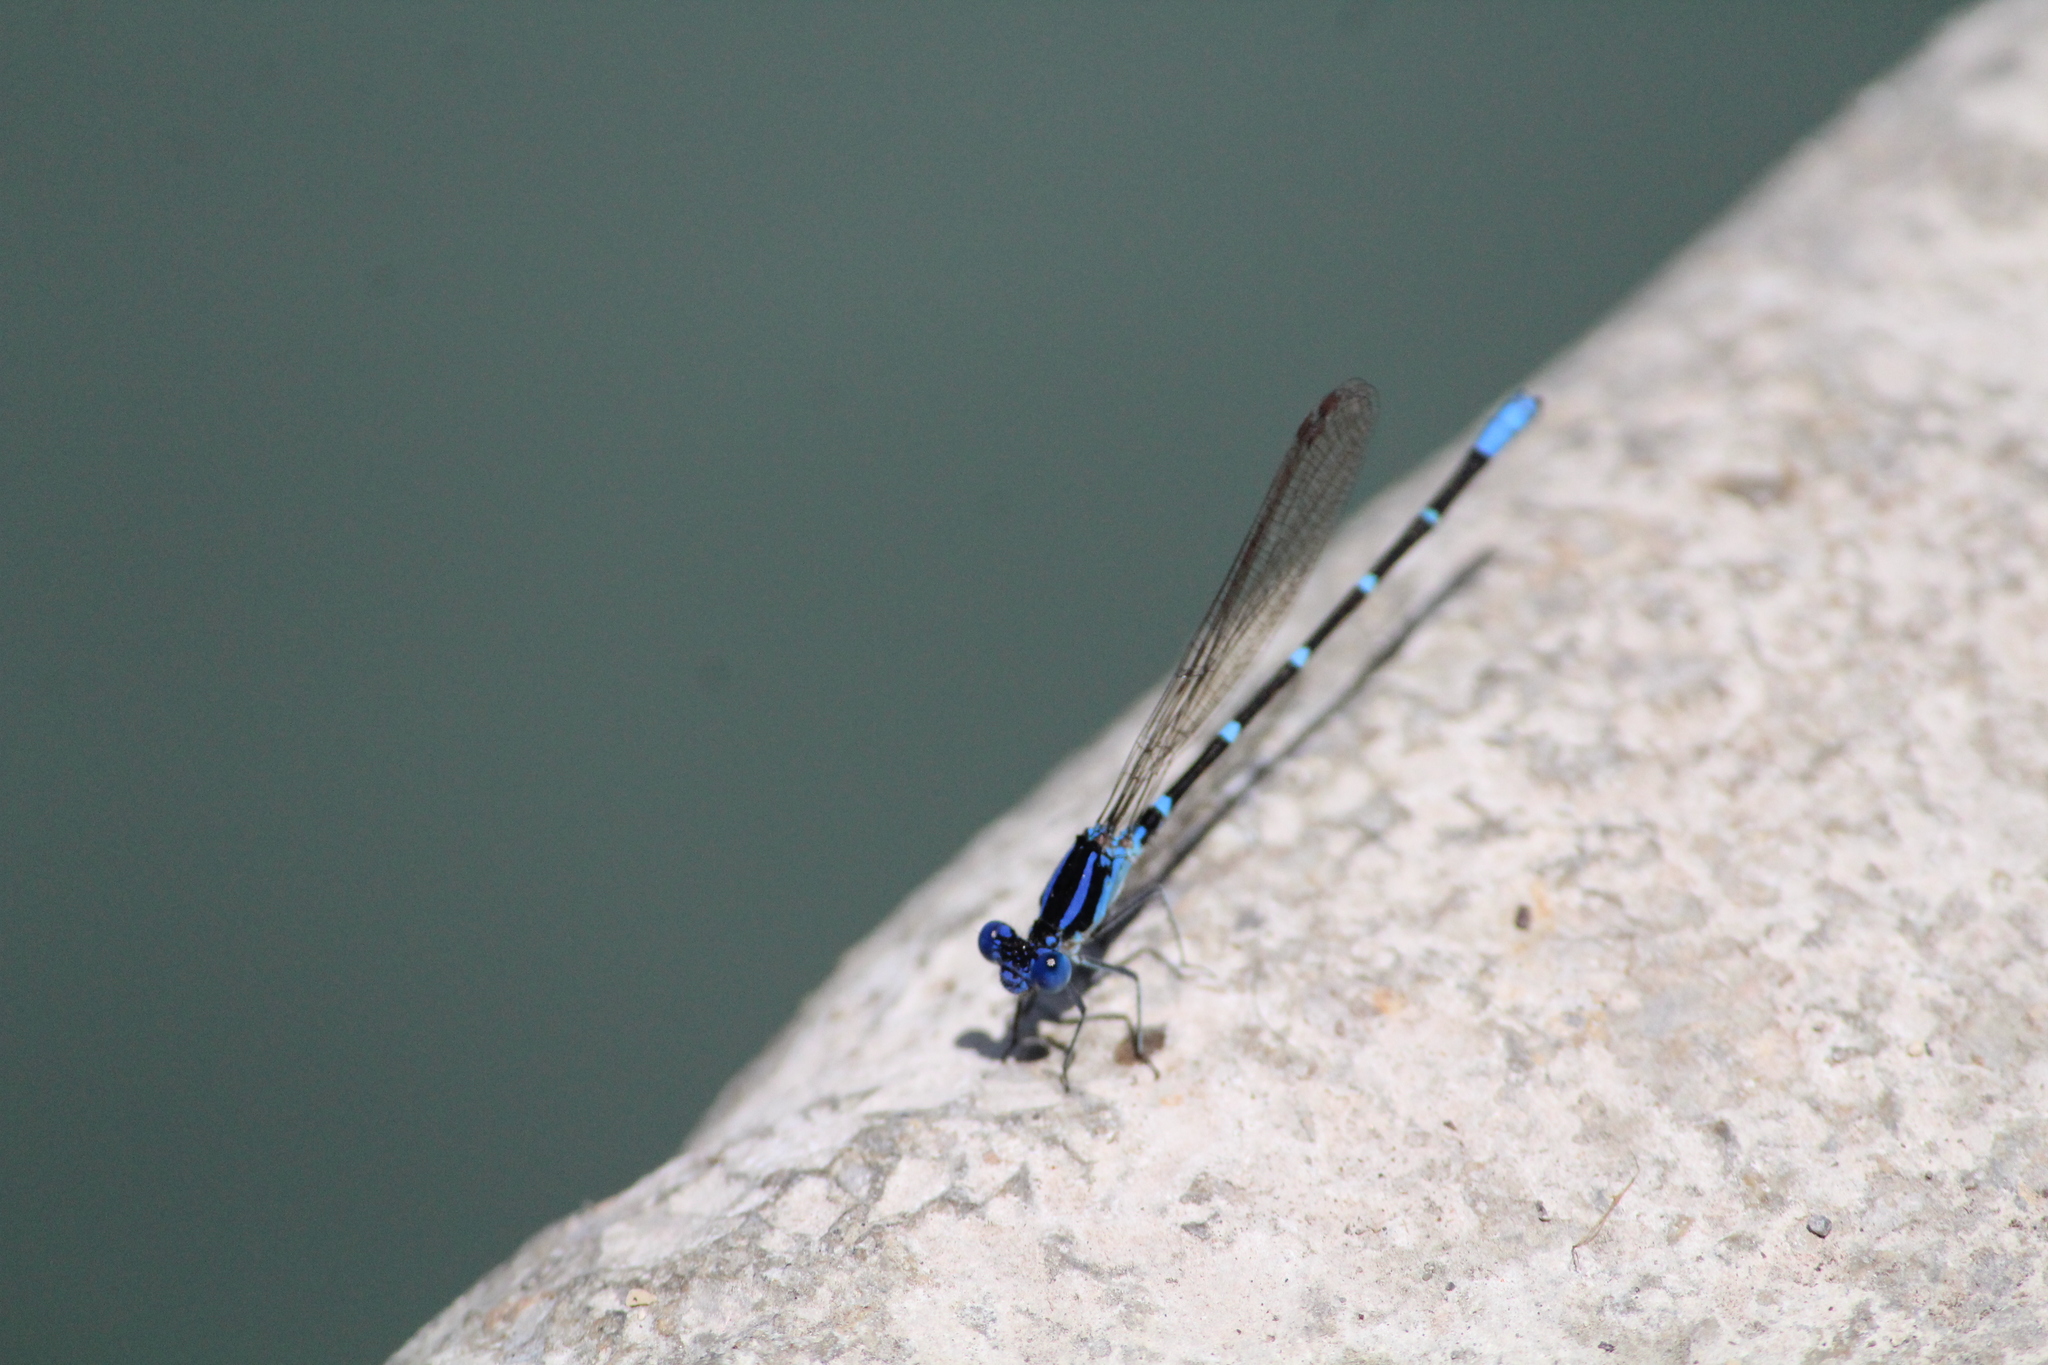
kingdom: Animalia
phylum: Arthropoda
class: Insecta
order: Odonata
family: Coenagrionidae
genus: Argia
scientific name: Argia sedula
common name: Blue-ringed dancer
